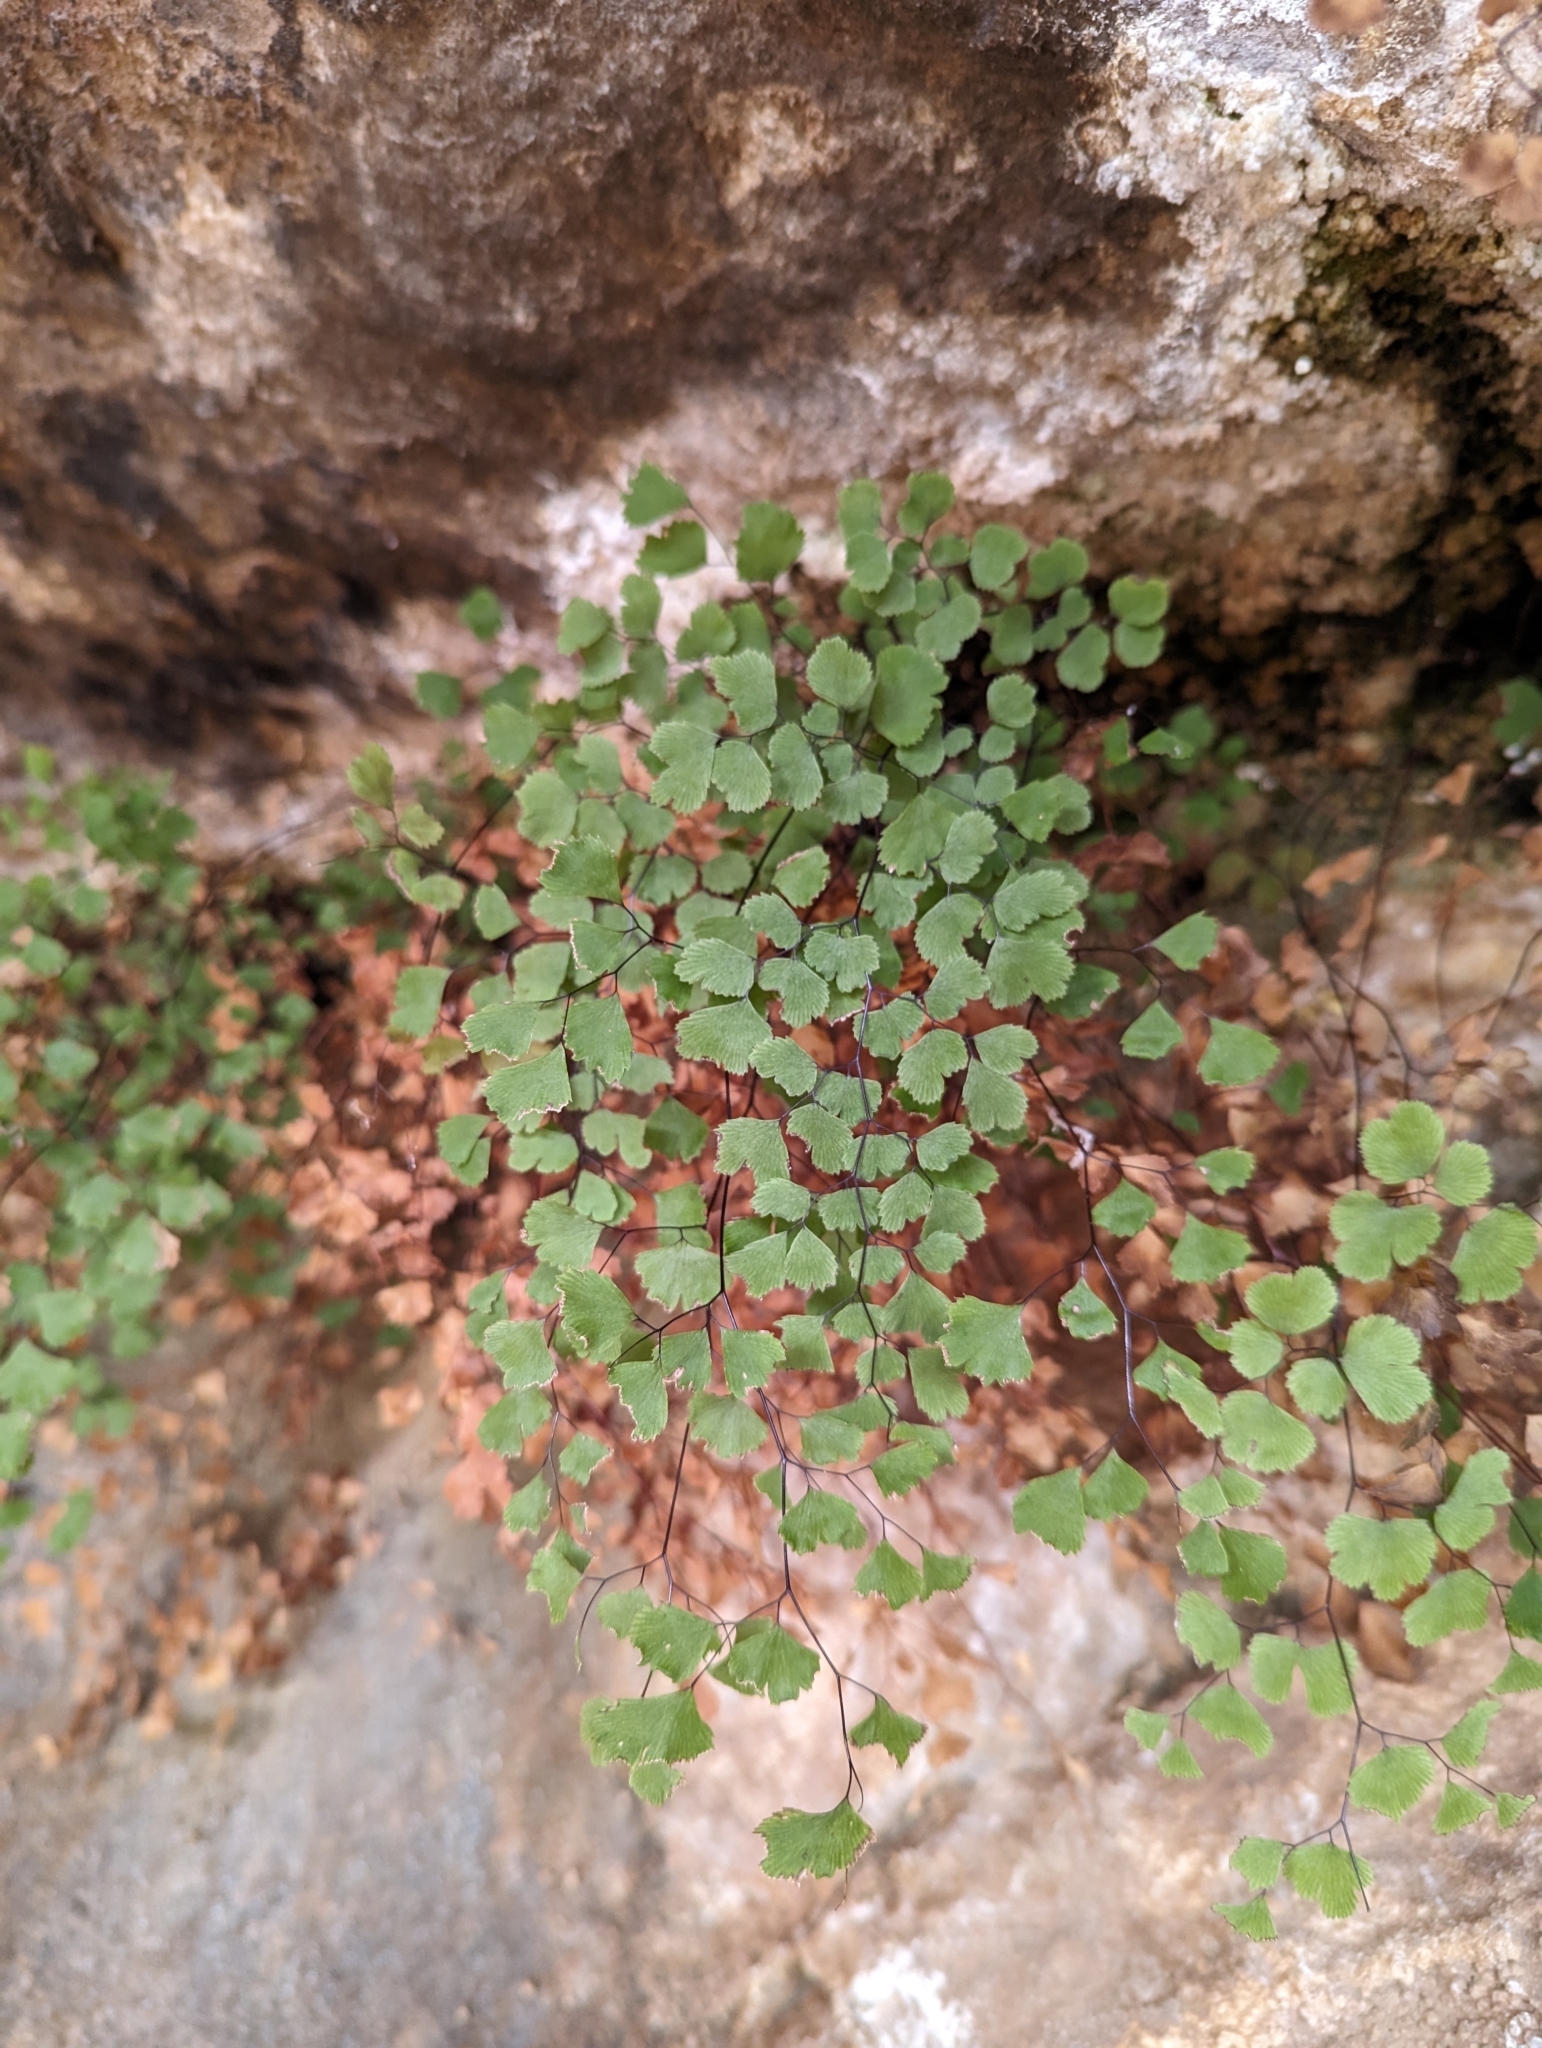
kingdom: Plantae
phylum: Tracheophyta
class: Polypodiopsida
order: Polypodiales
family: Pteridaceae
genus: Adiantum
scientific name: Adiantum capillus-veneris
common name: Maidenhair fern
